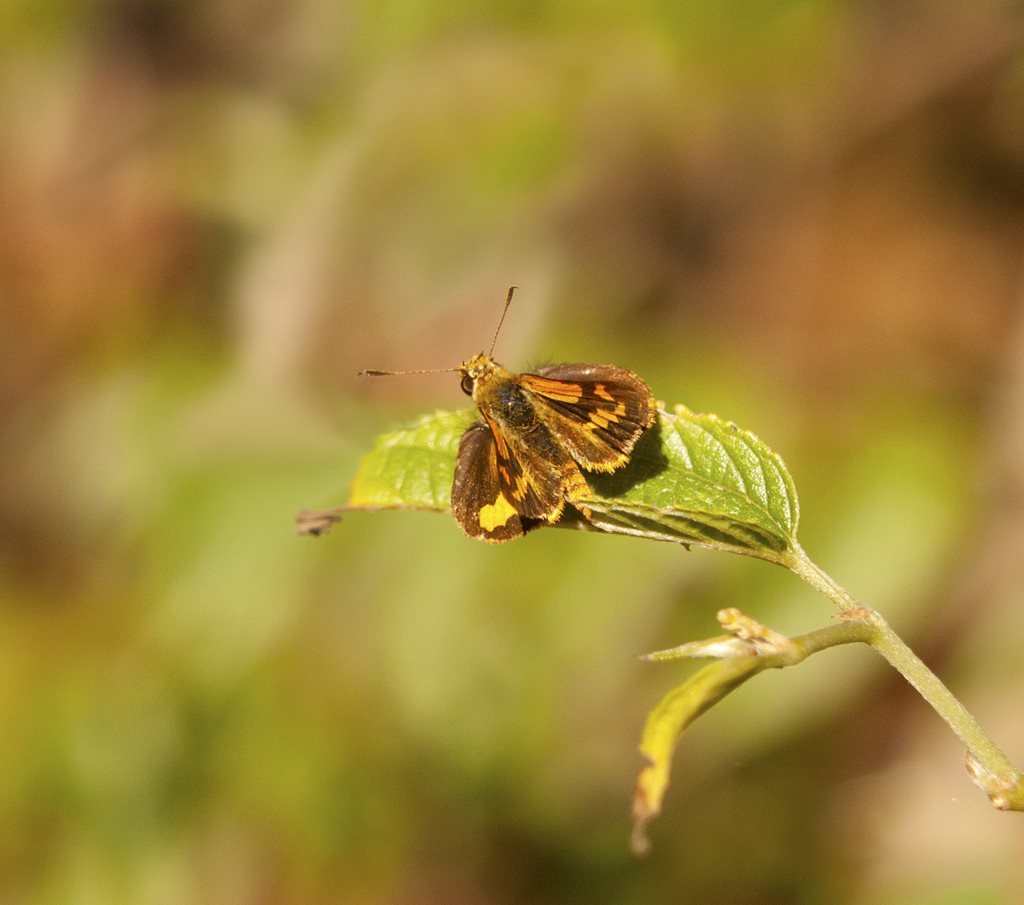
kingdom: Animalia
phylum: Arthropoda
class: Insecta
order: Lepidoptera
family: Hesperiidae
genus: Ocybadistes
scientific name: Ocybadistes ardea
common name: Dark orange dart
